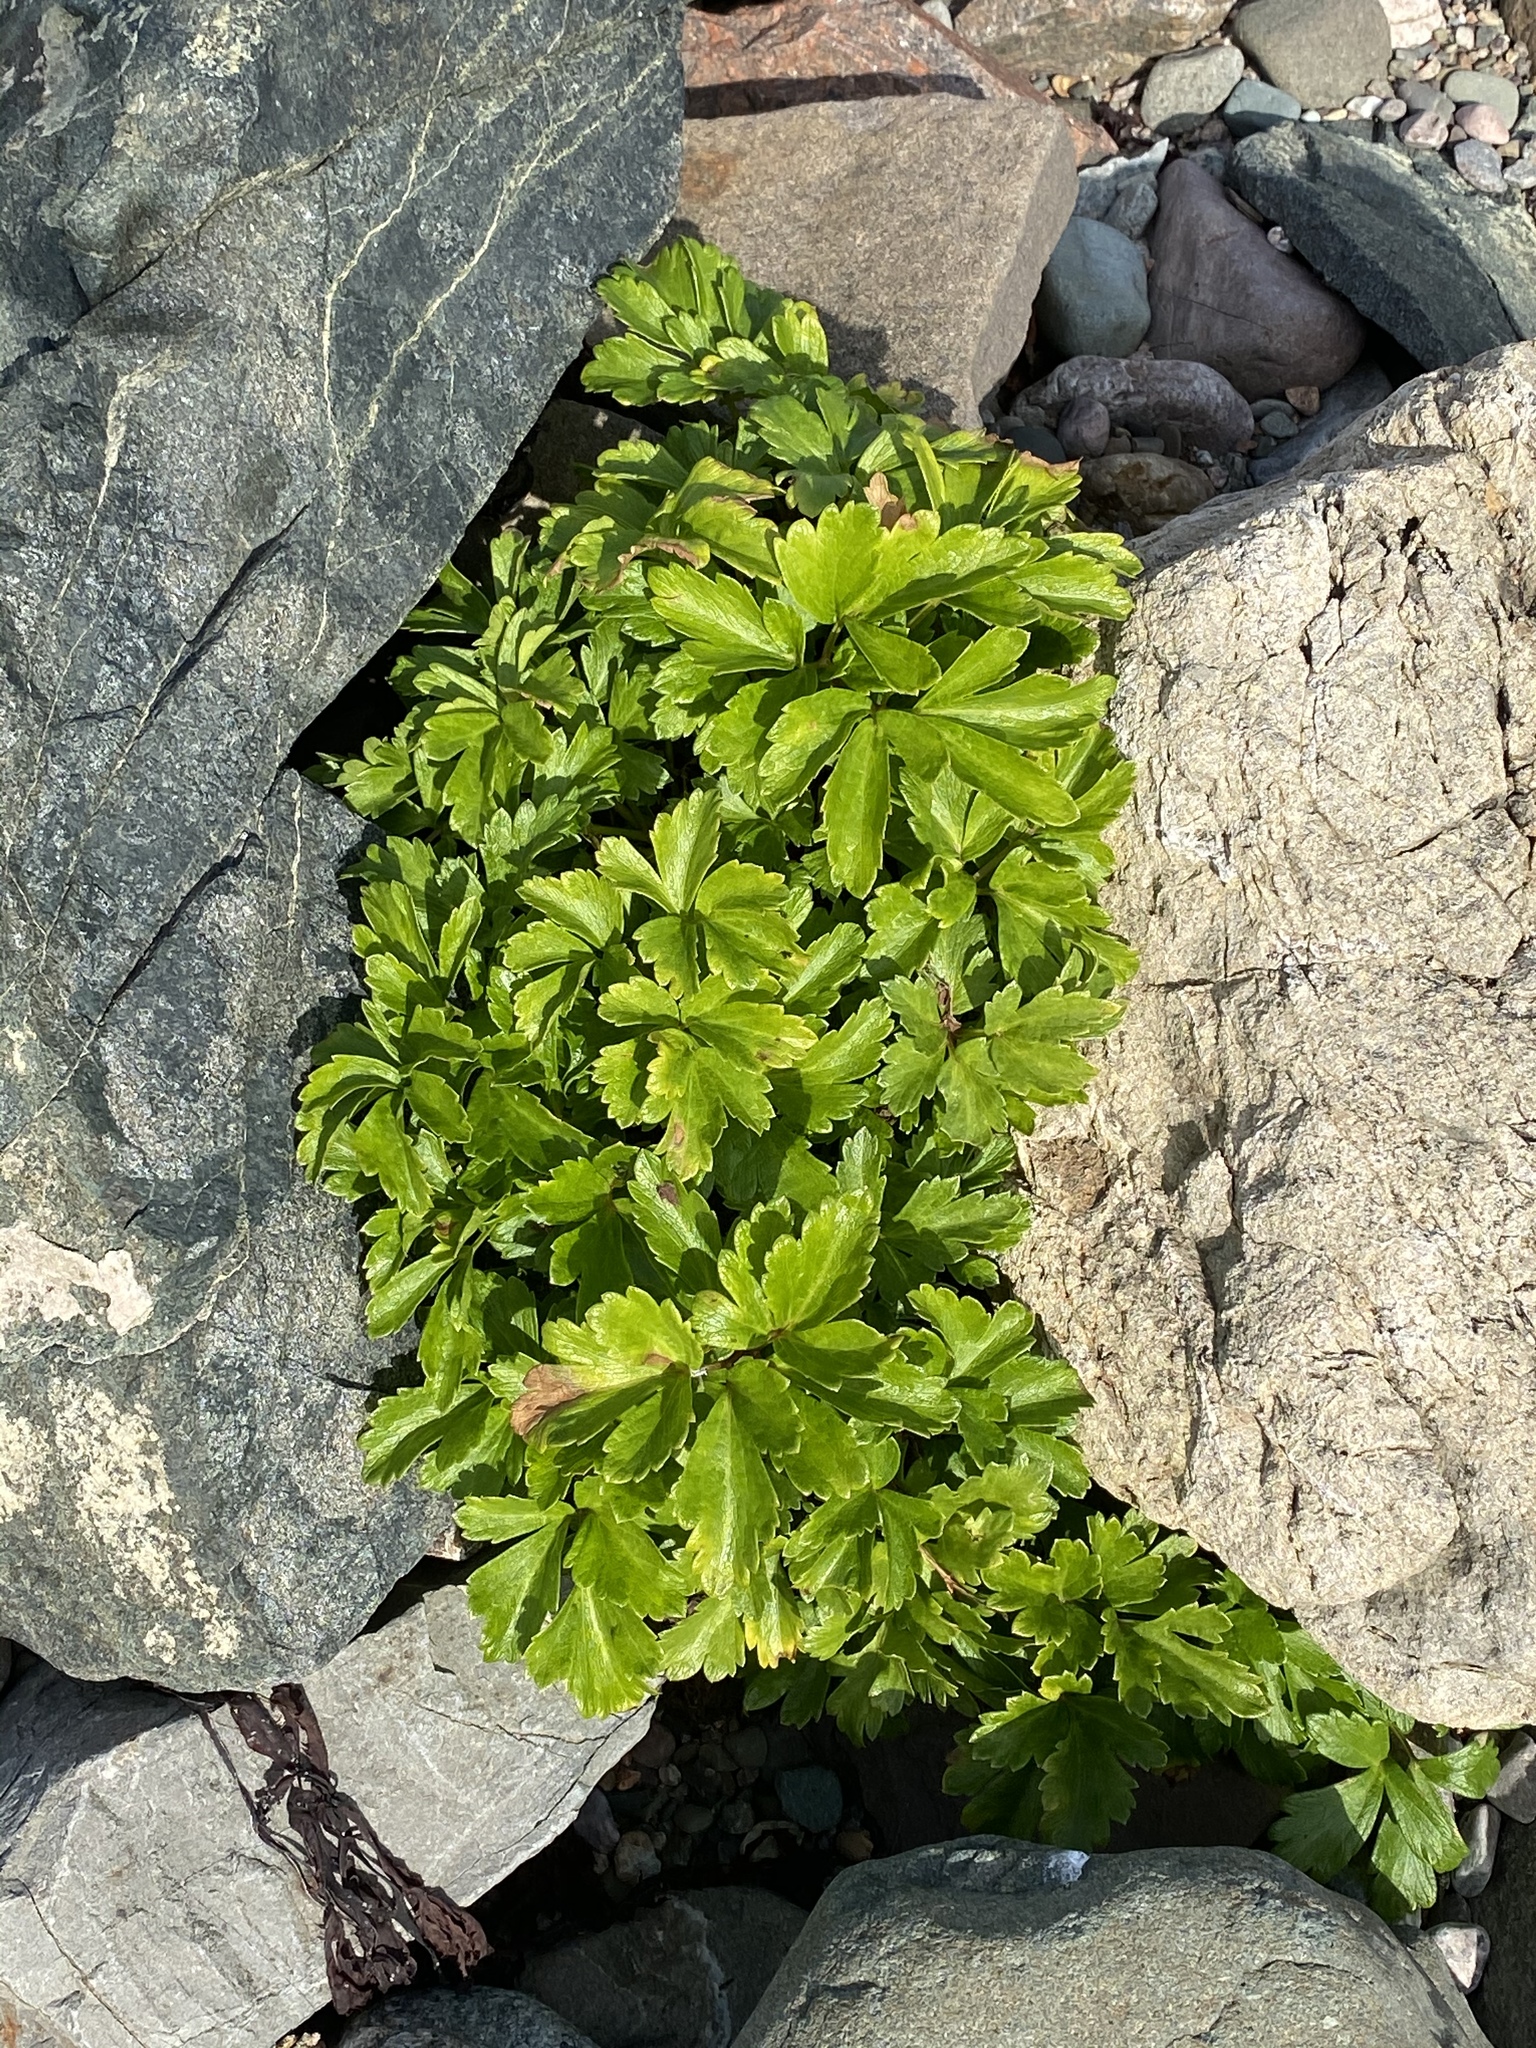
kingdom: Plantae
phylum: Tracheophyta
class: Magnoliopsida
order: Apiales
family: Apiaceae
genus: Ligusticum
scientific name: Ligusticum scothicum
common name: Beach lovage
